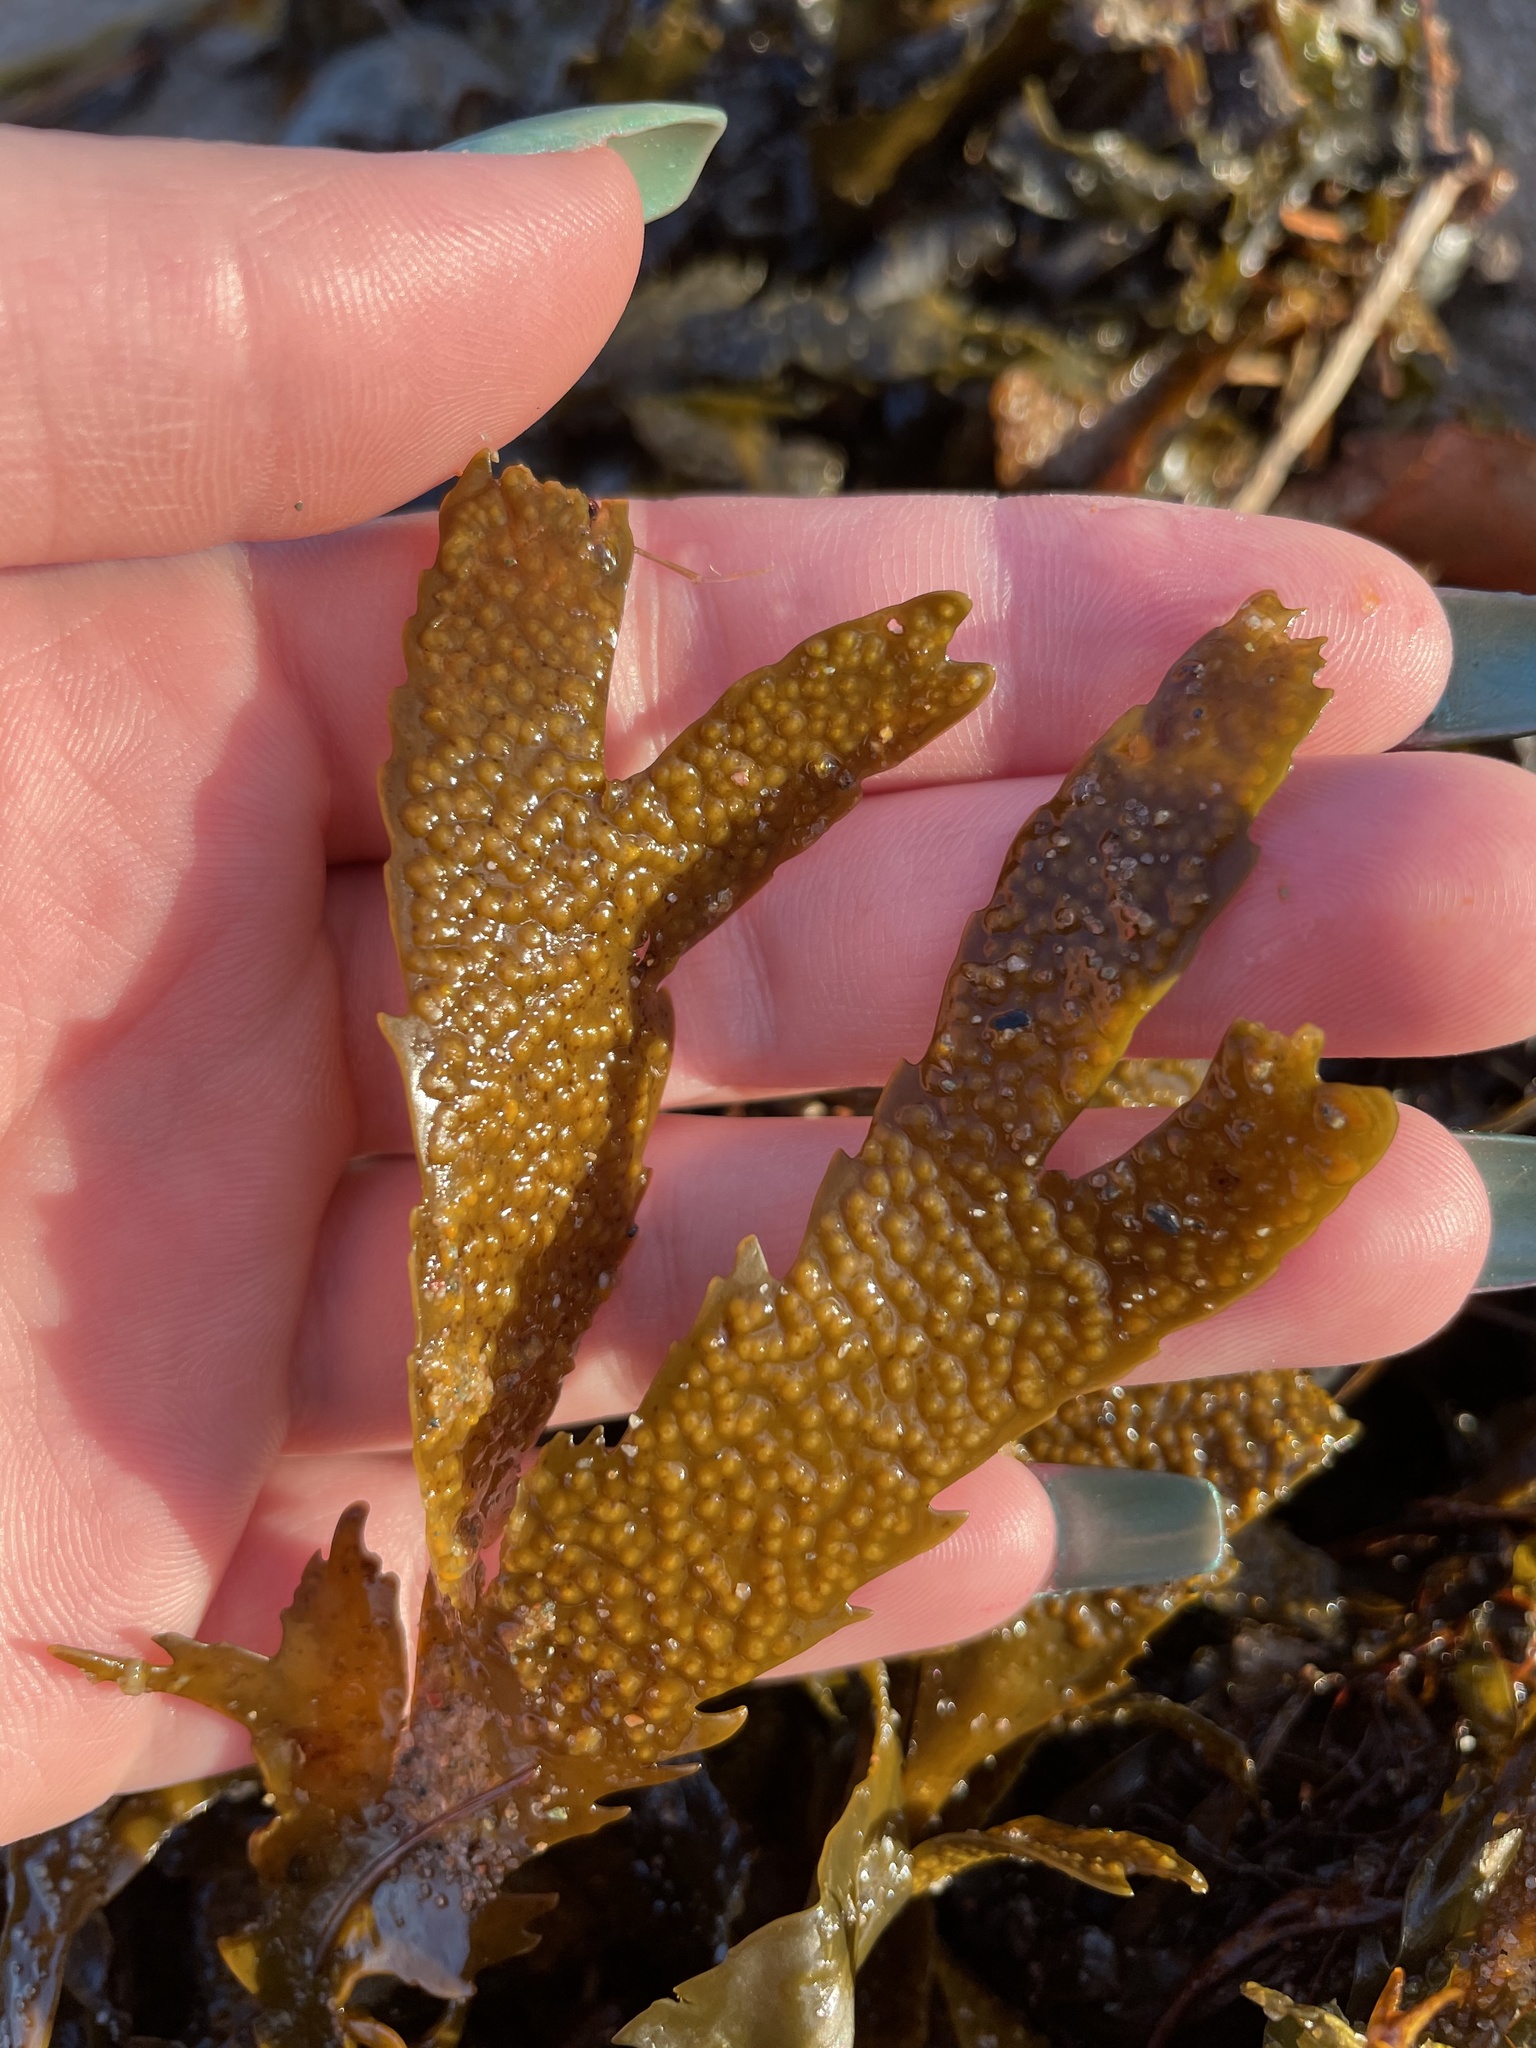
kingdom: Chromista
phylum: Ochrophyta
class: Phaeophyceae
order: Fucales
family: Fucaceae
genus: Fucus
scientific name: Fucus serratus
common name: Toothed wrack
